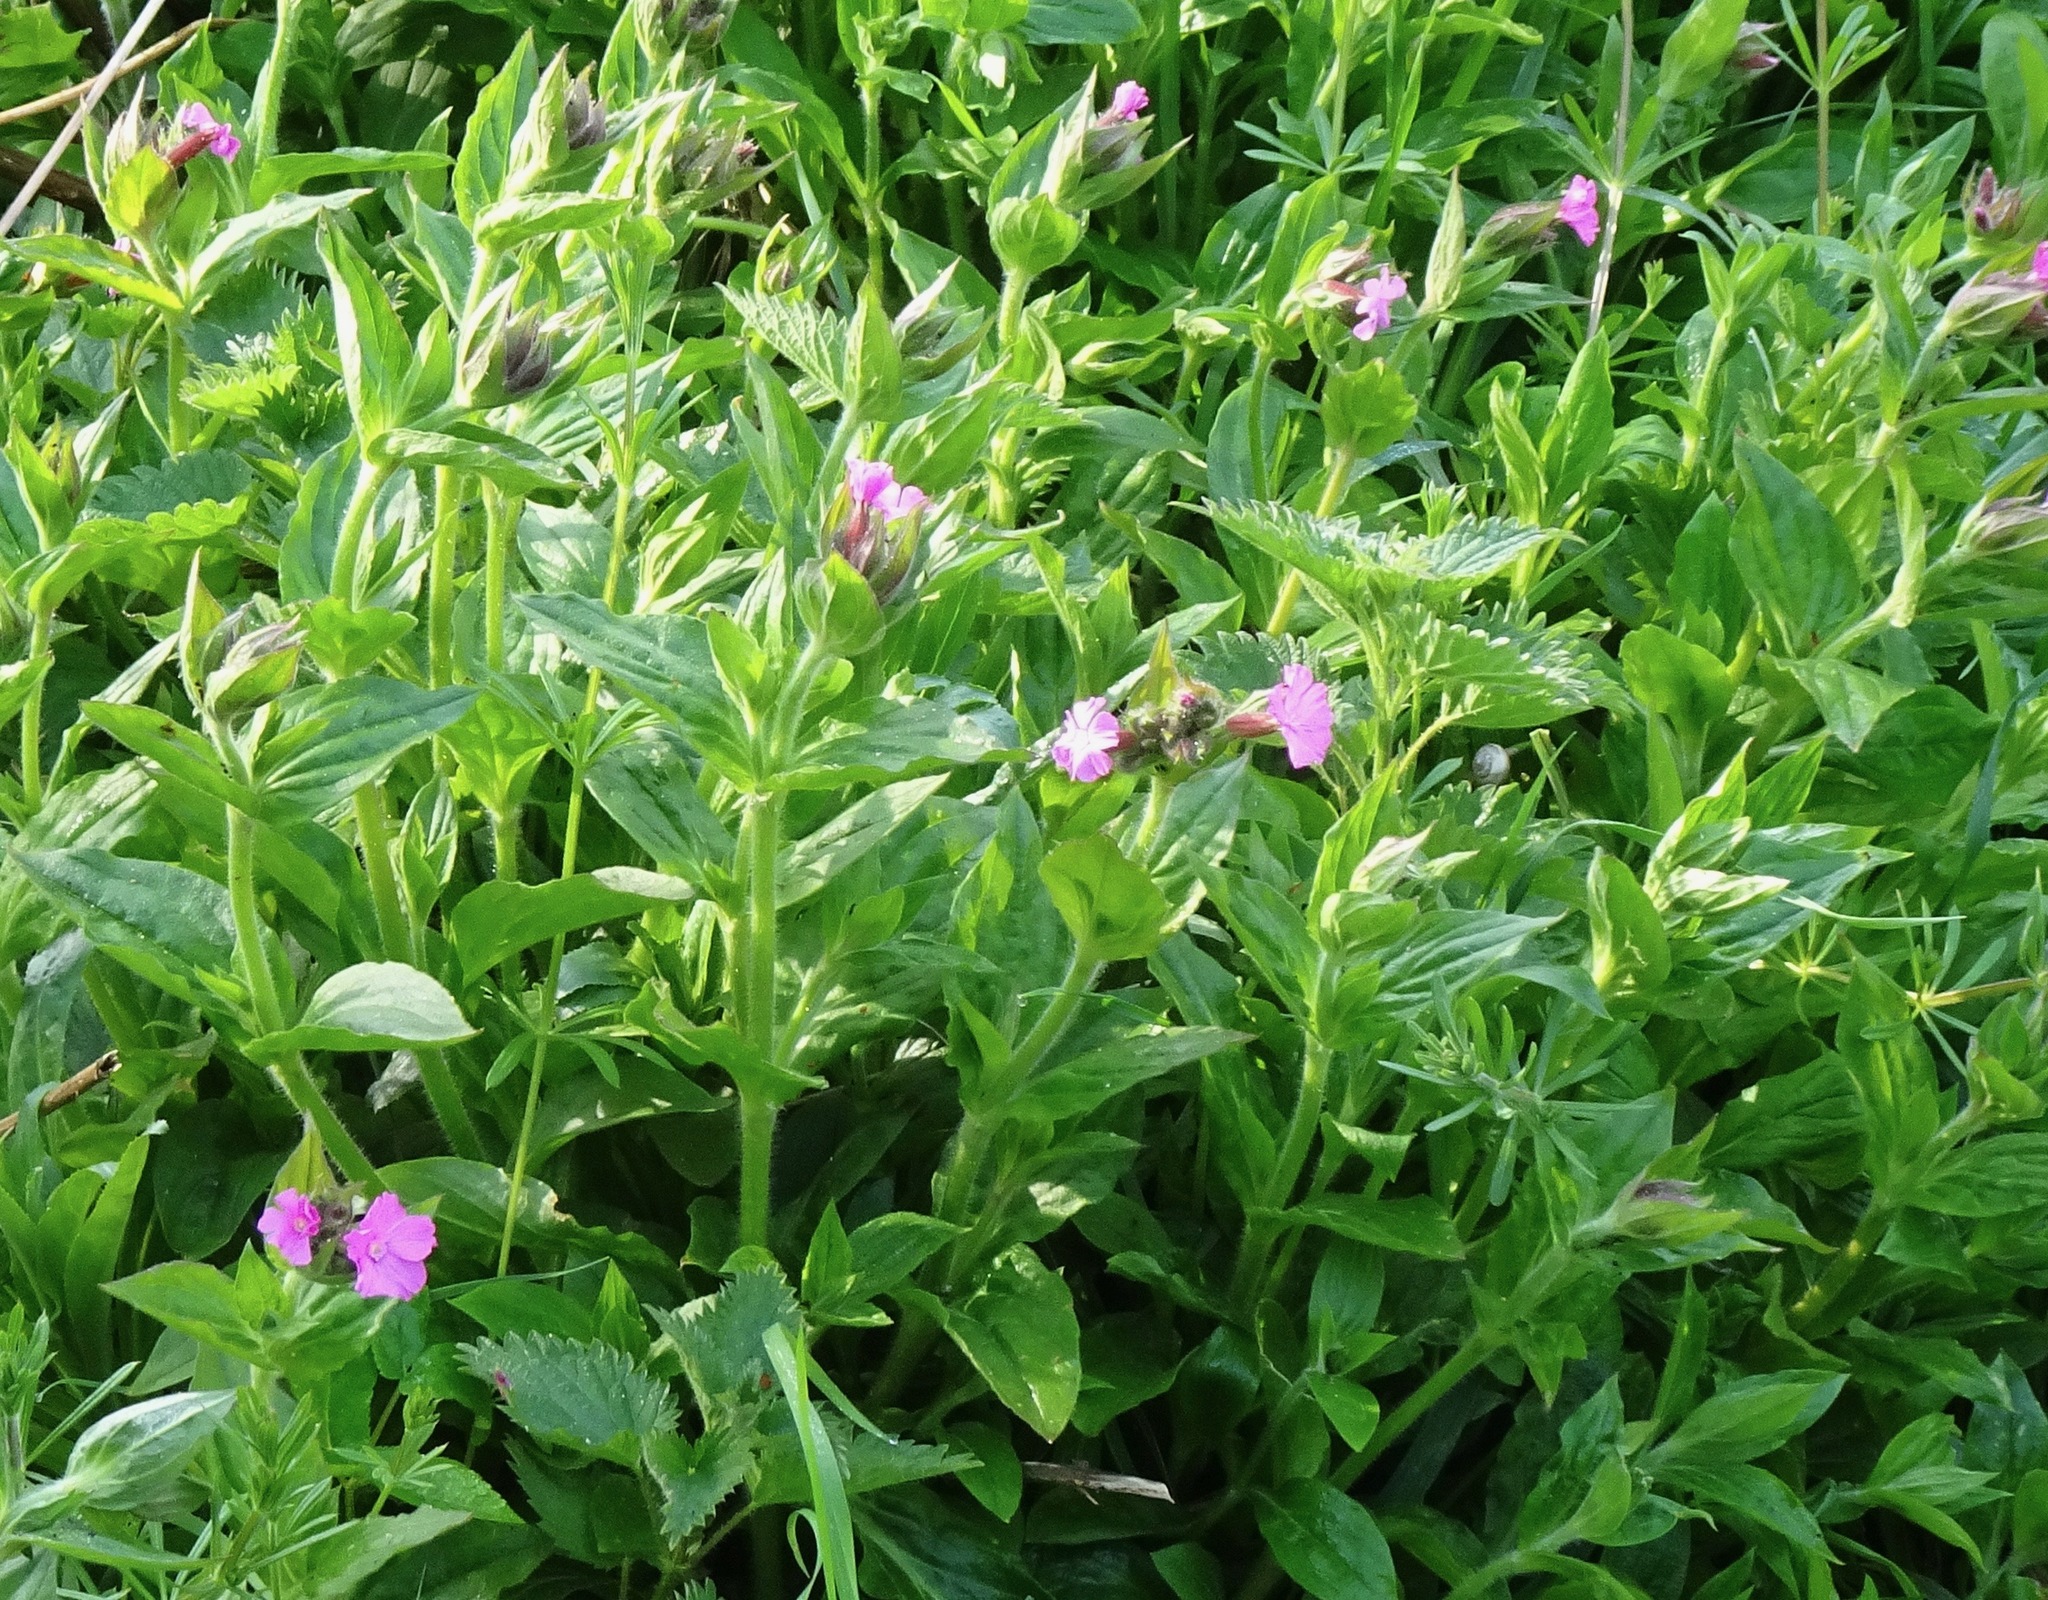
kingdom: Plantae
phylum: Tracheophyta
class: Magnoliopsida
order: Caryophyllales
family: Caryophyllaceae
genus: Silene
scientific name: Silene dioica
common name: Red campion
